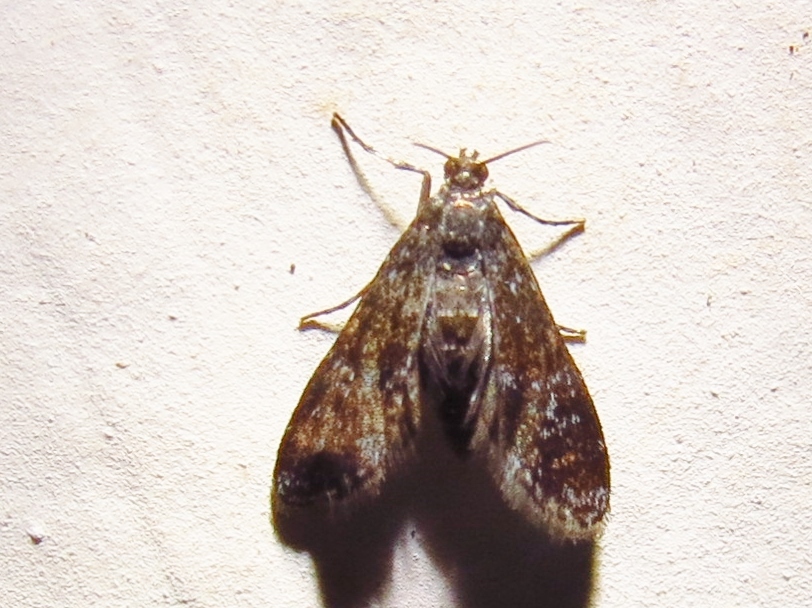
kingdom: Animalia
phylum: Arthropoda
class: Insecta
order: Lepidoptera
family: Crambidae
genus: Elophila
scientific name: Elophila tinealis
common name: Black duckweed moth
